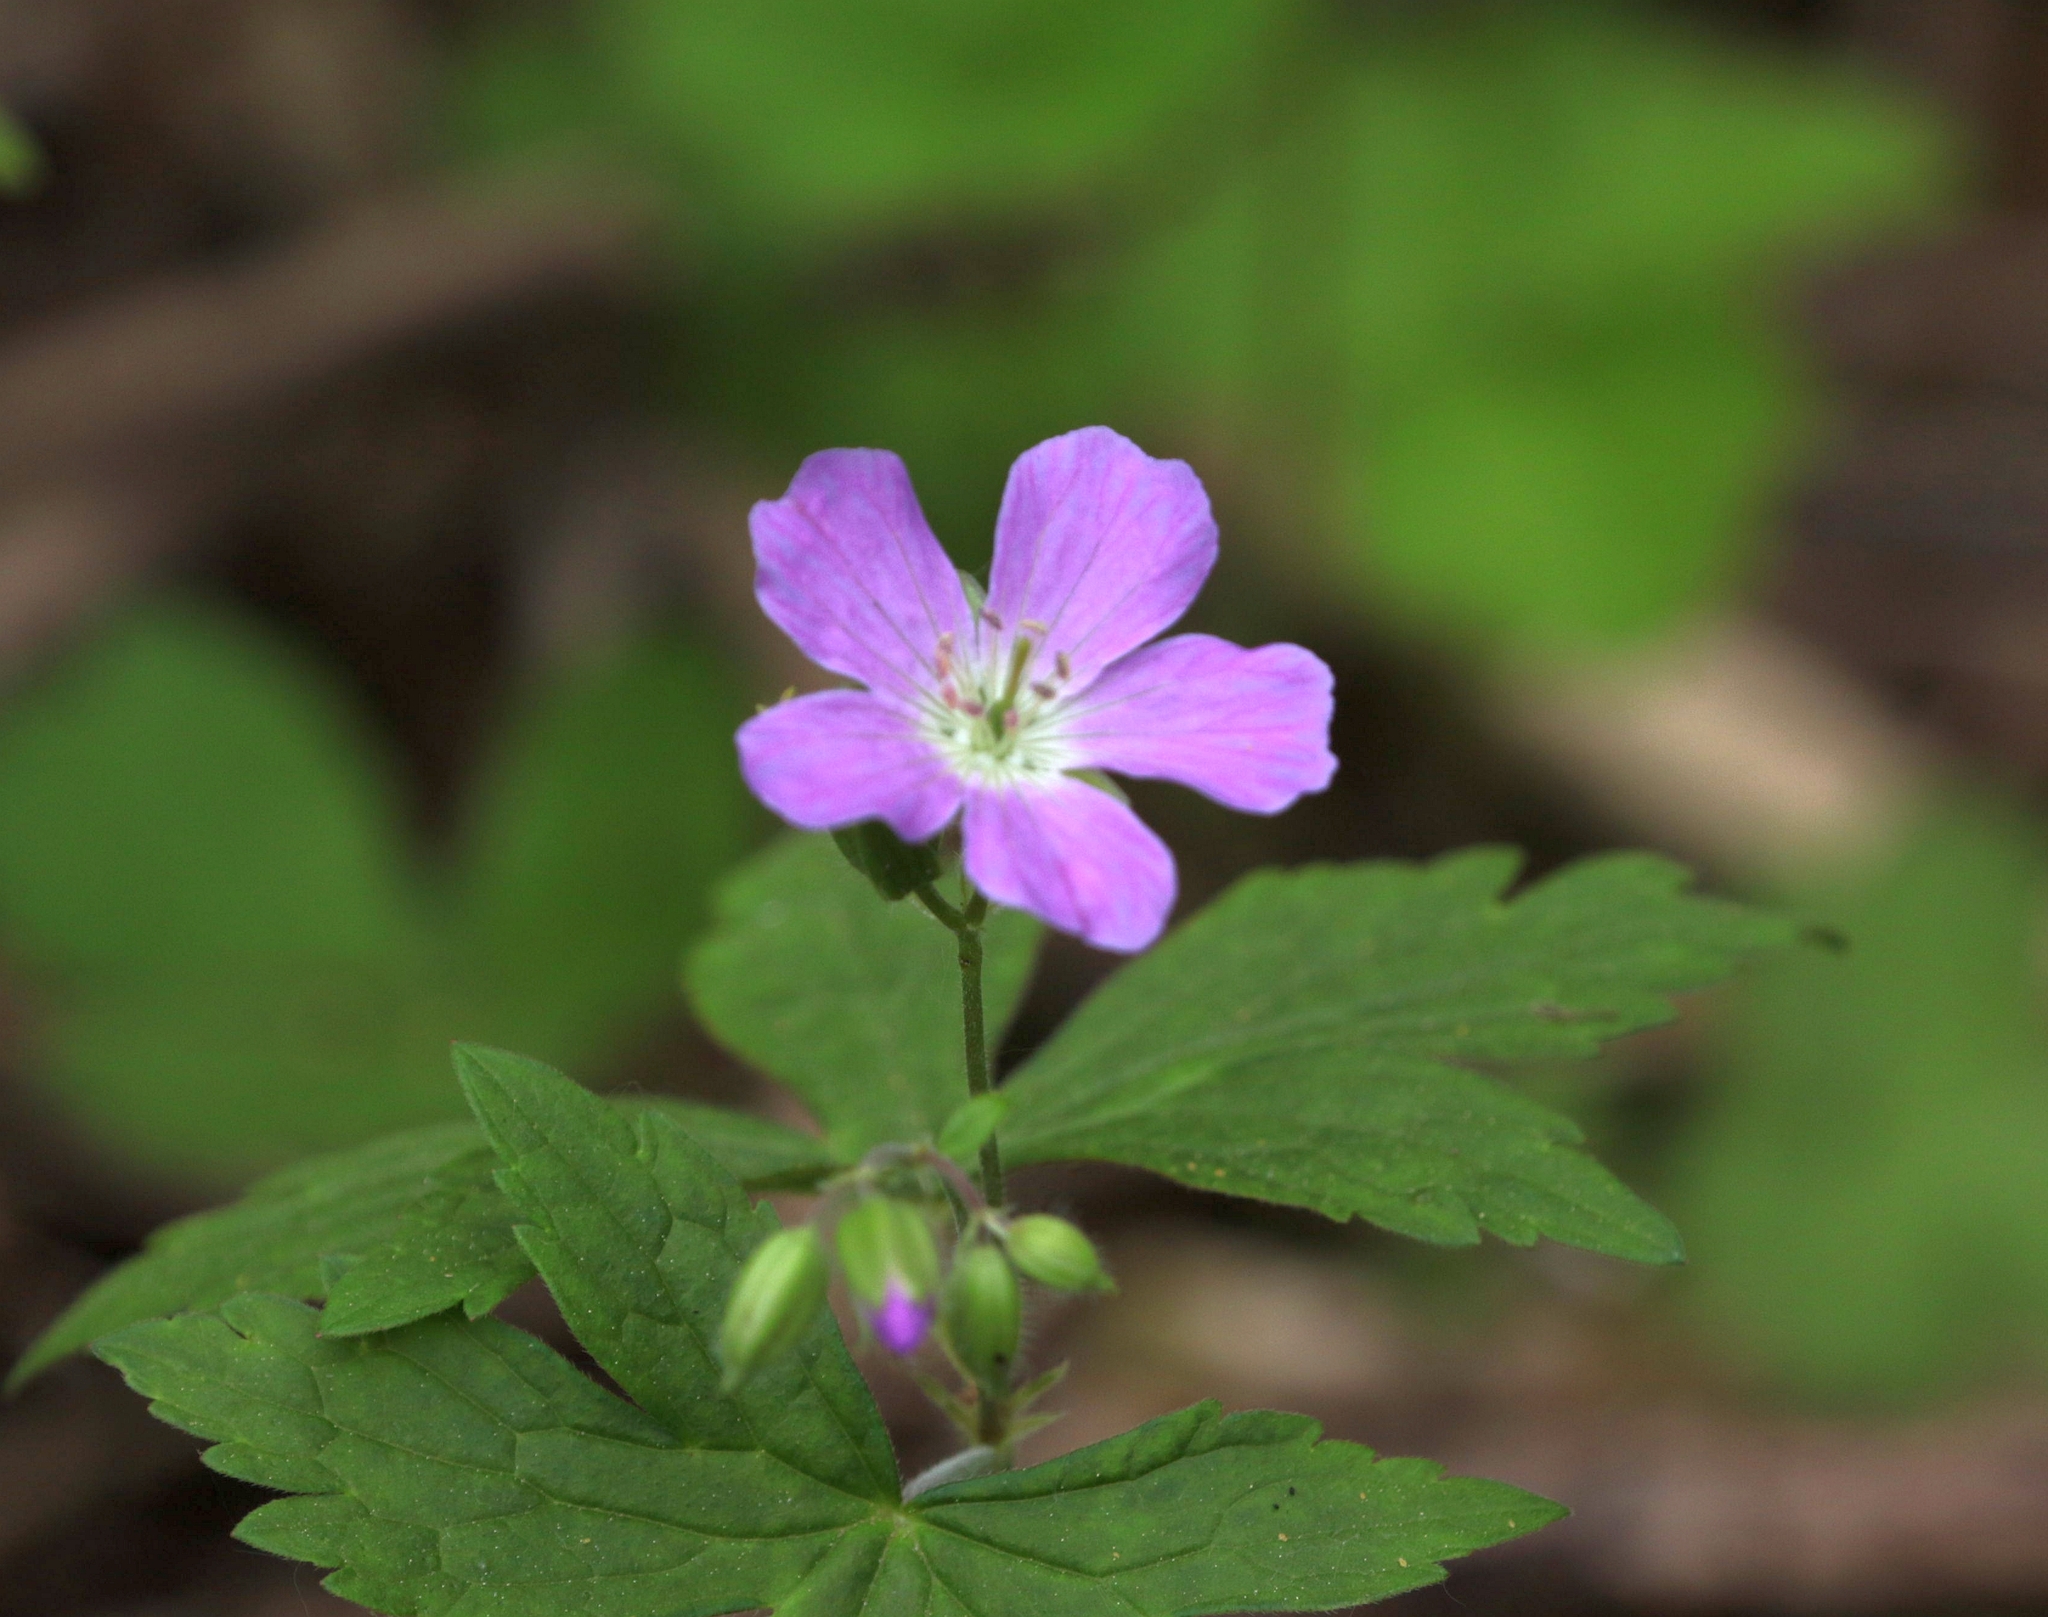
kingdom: Plantae
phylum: Tracheophyta
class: Magnoliopsida
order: Geraniales
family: Geraniaceae
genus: Geranium
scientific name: Geranium maculatum
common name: Spotted geranium
